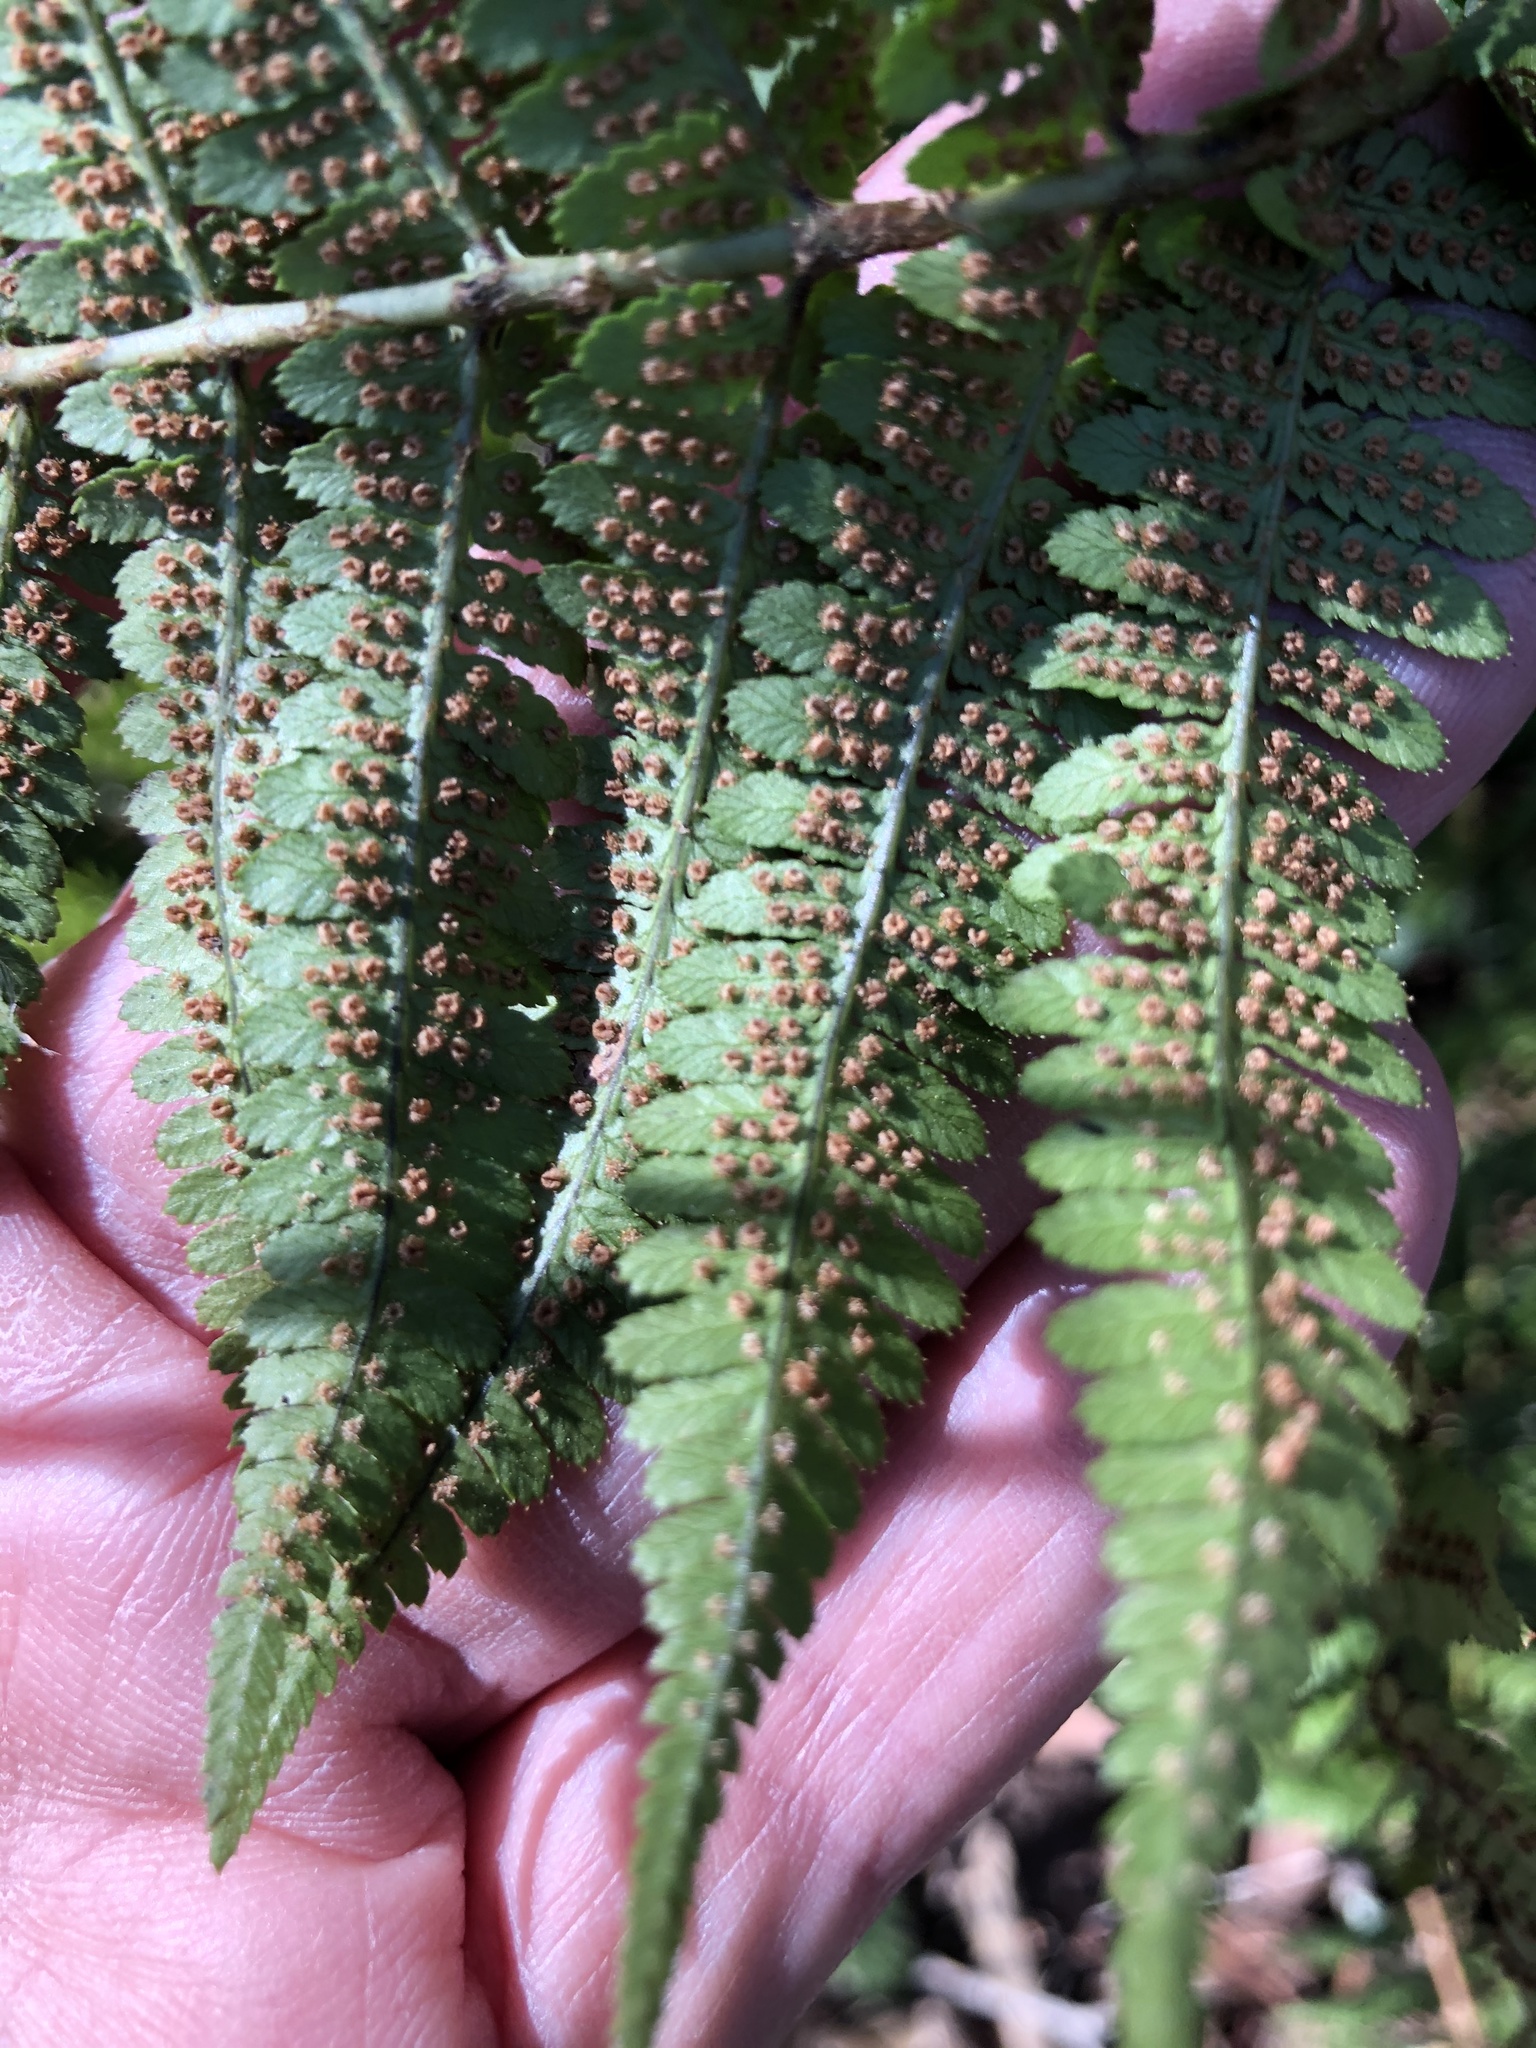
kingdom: Plantae
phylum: Tracheophyta
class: Polypodiopsida
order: Polypodiales
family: Dryopteridaceae
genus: Dryopteris
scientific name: Dryopteris arguta
